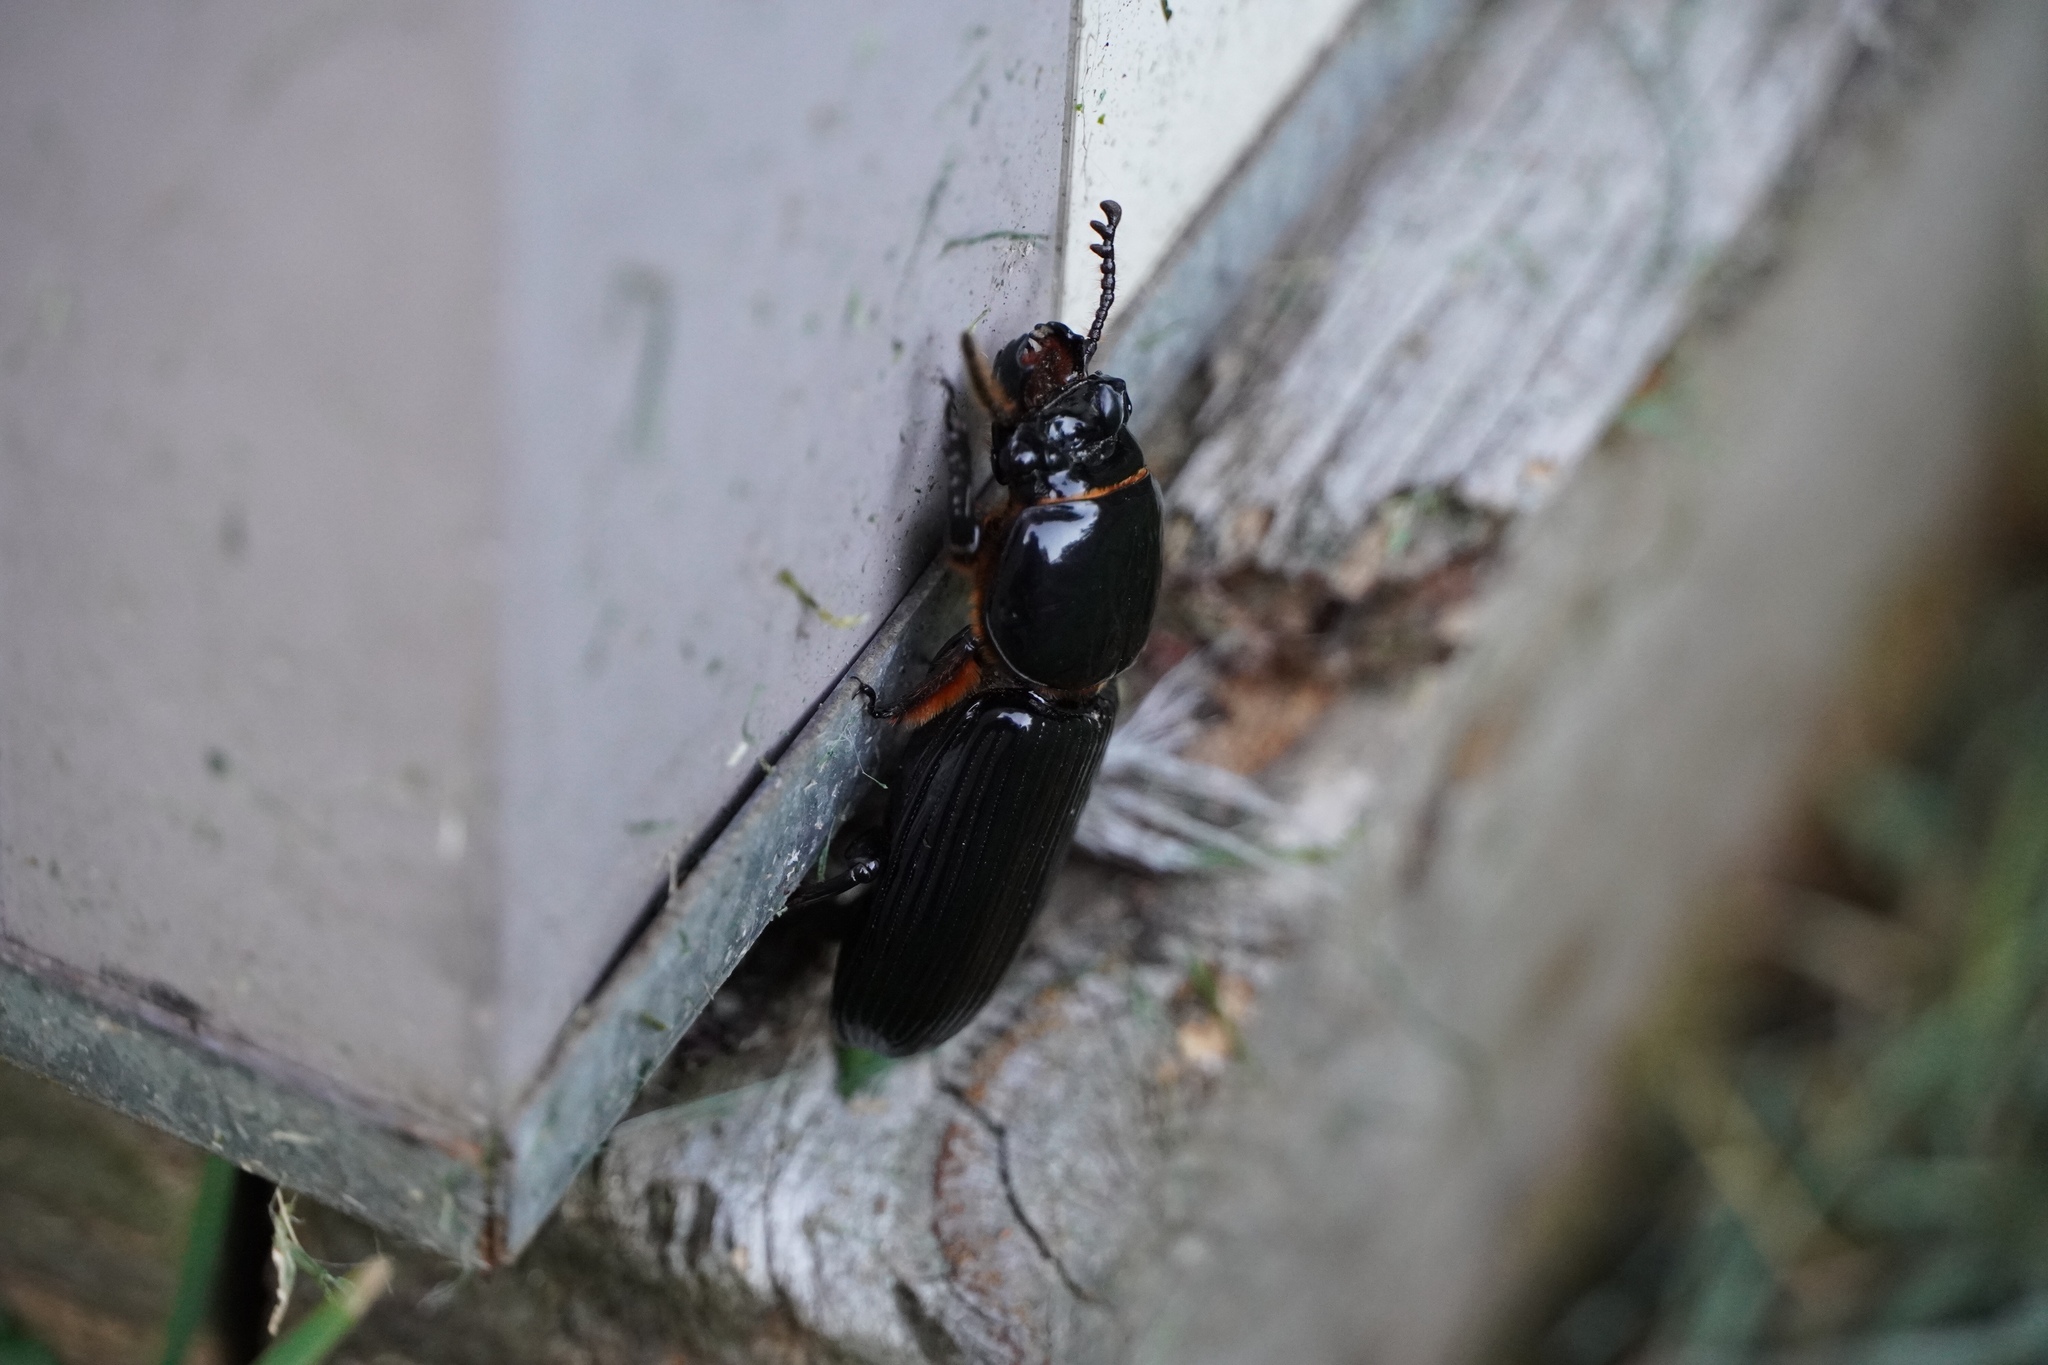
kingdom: Animalia
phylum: Arthropoda
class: Insecta
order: Coleoptera
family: Passalidae
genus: Odontotaenius
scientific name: Odontotaenius disjunctus
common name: Patent leather beetle
